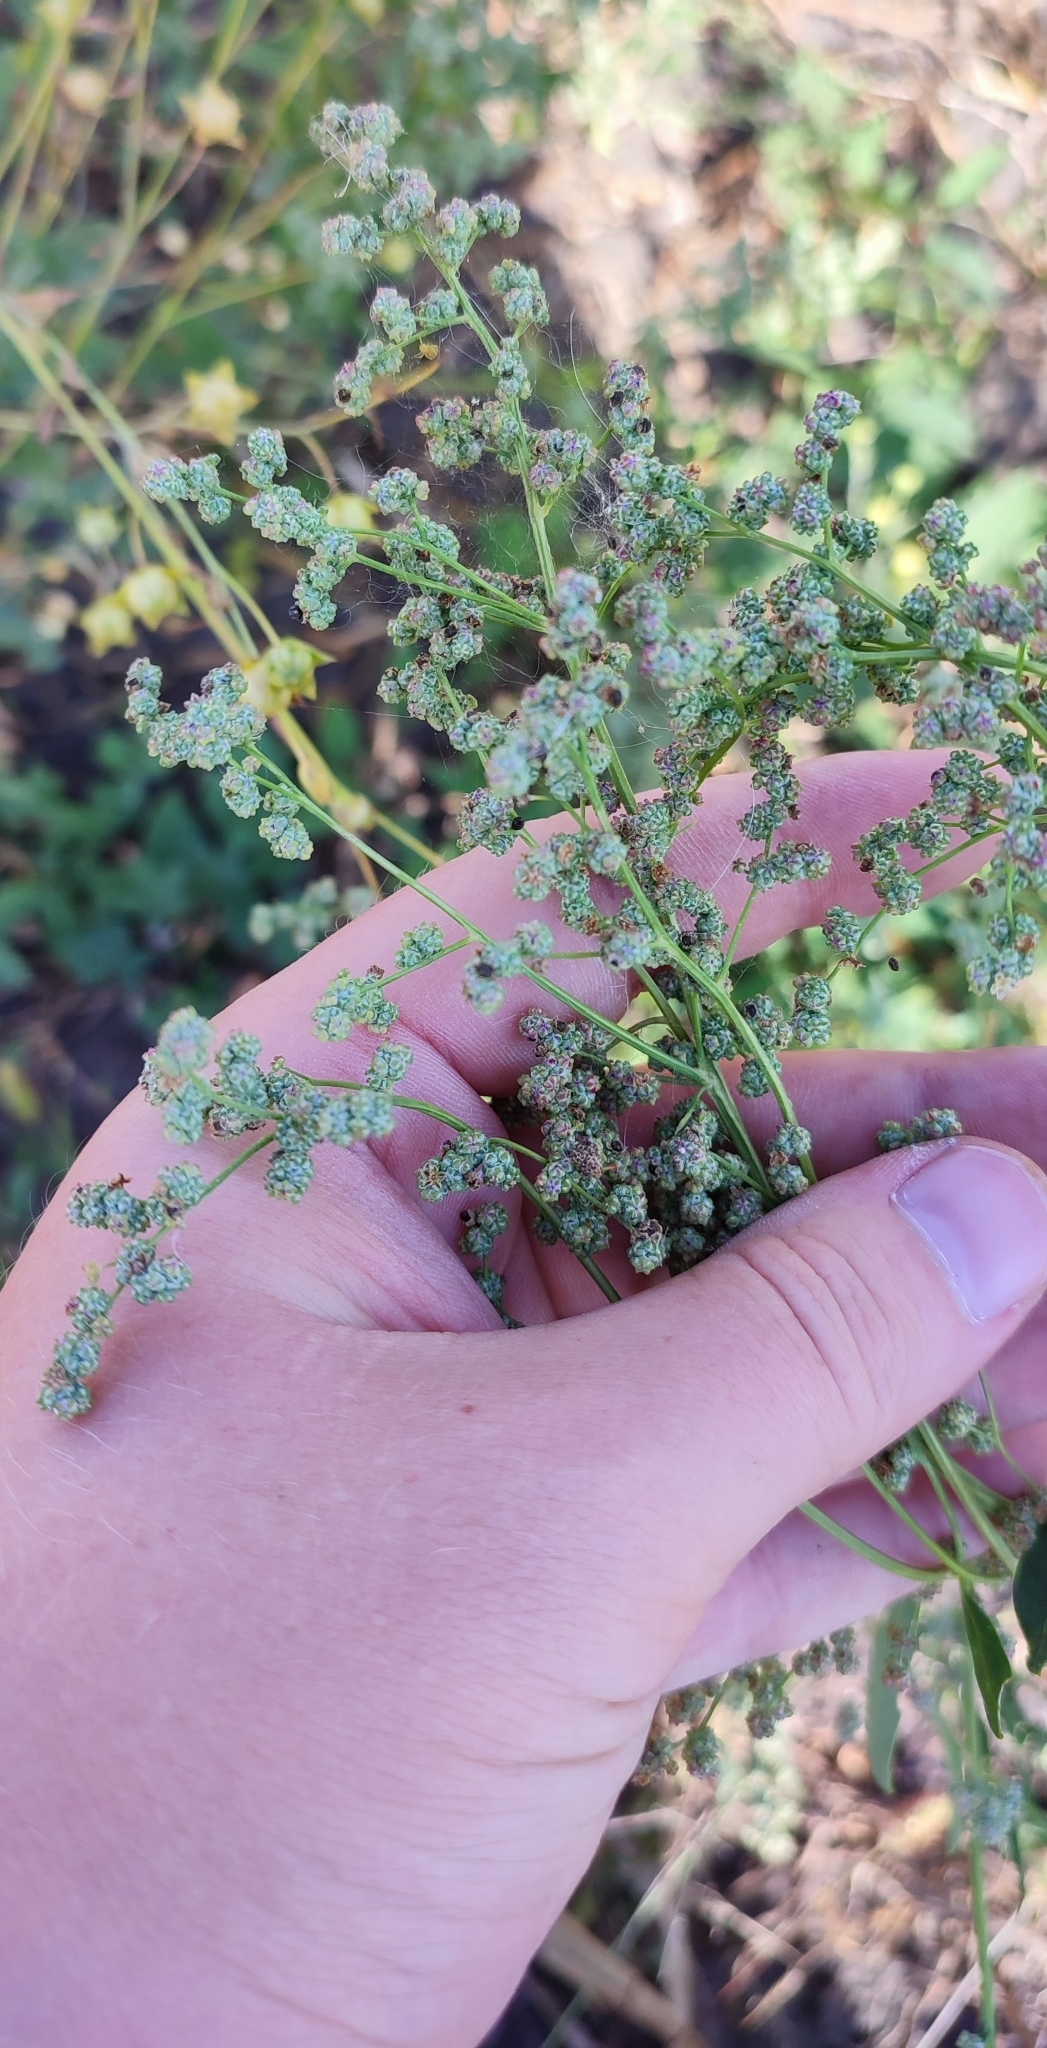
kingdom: Plantae
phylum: Tracheophyta
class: Magnoliopsida
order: Caryophyllales
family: Amaranthaceae
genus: Chenopodium
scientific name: Chenopodium album
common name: Fat-hen
